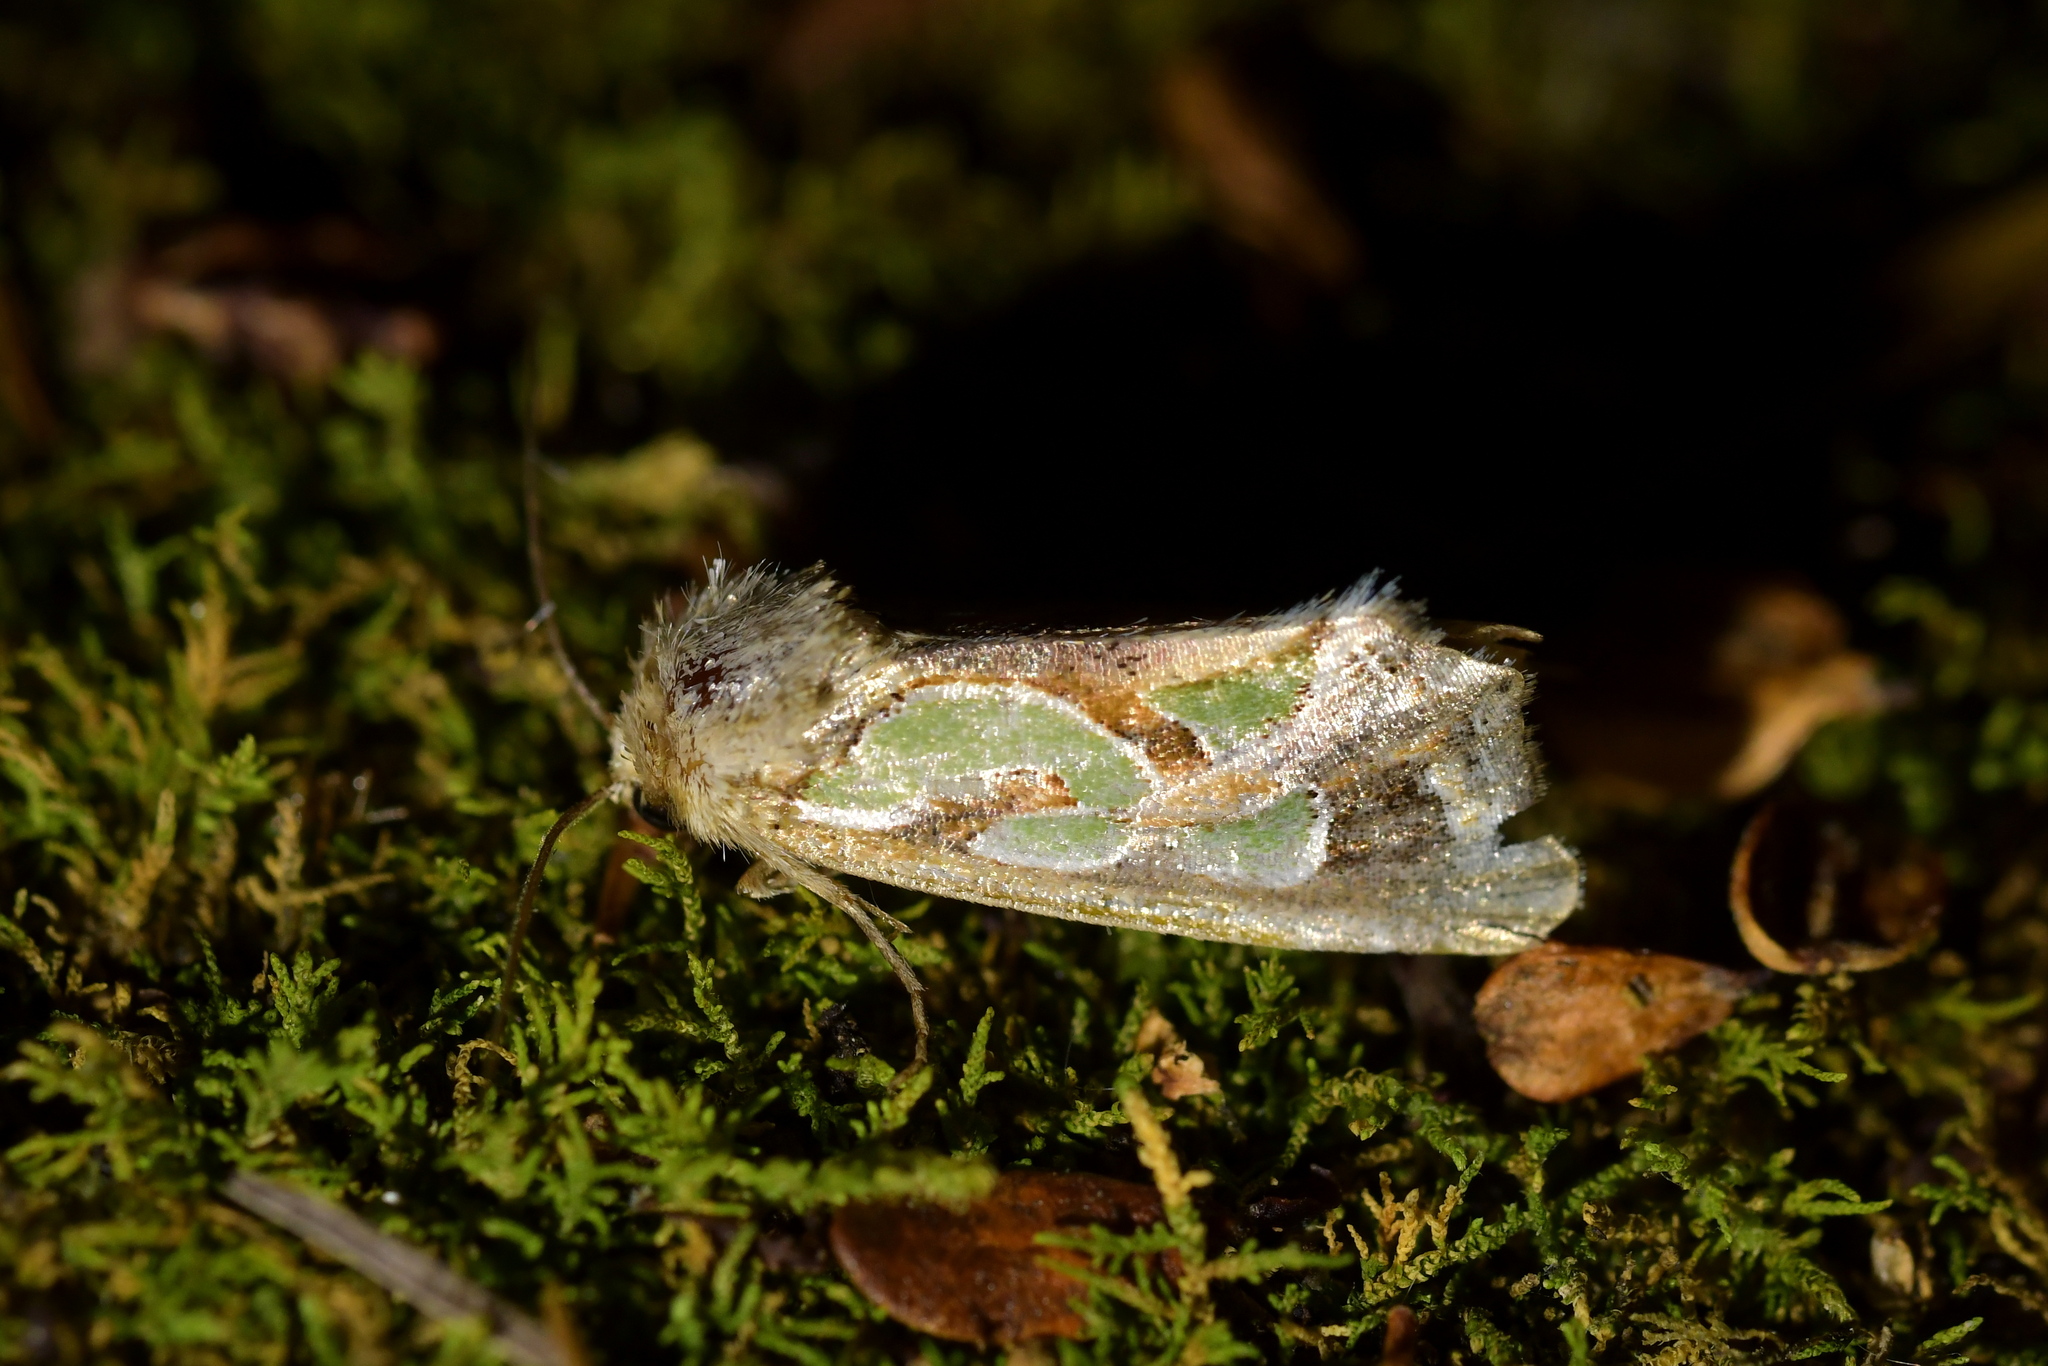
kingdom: Animalia
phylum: Arthropoda
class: Insecta
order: Lepidoptera
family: Noctuidae
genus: Cosmodes
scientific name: Cosmodes elegans
